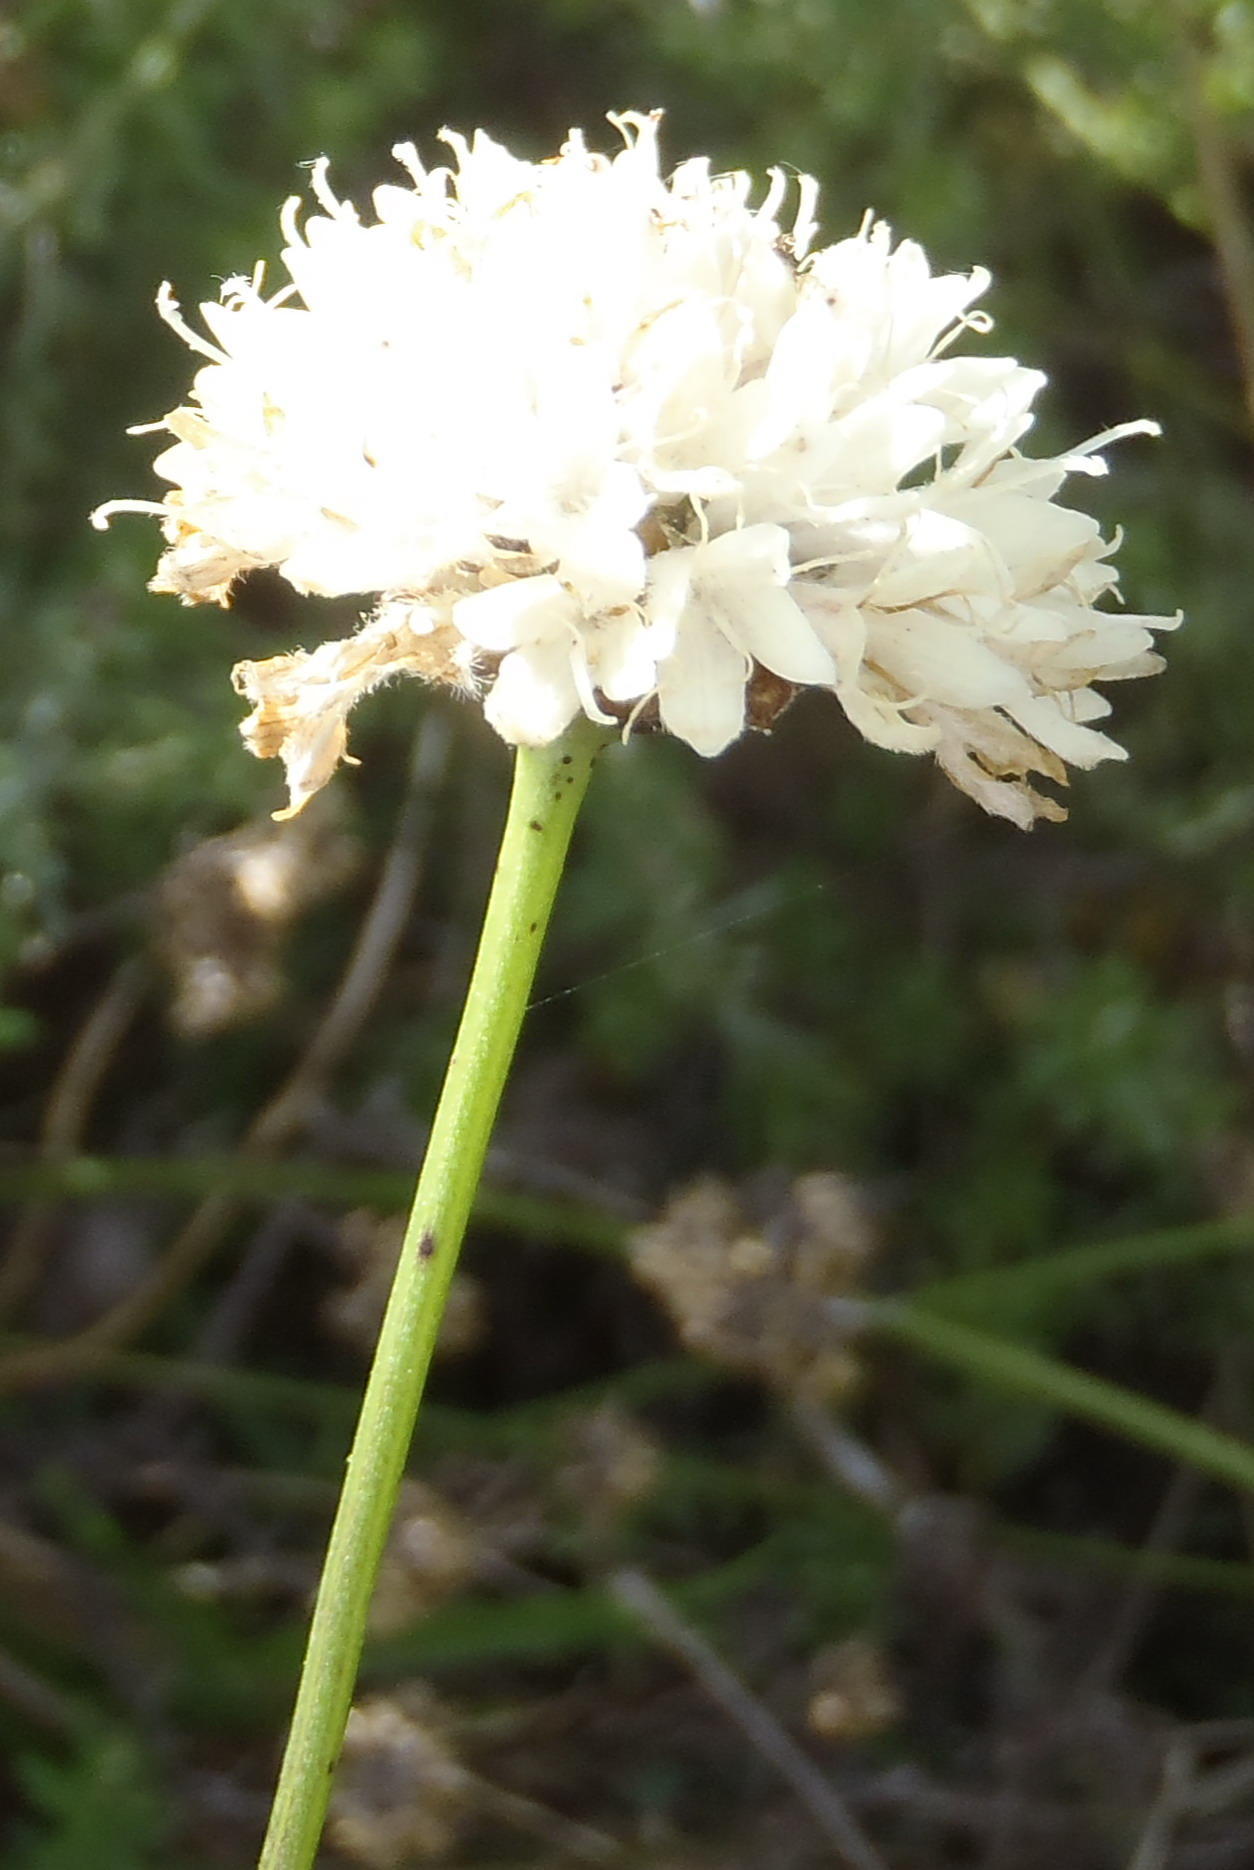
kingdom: Plantae
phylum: Tracheophyta
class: Magnoliopsida
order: Dipsacales
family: Caprifoliaceae
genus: Cephalaria
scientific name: Cephalaria humilis
